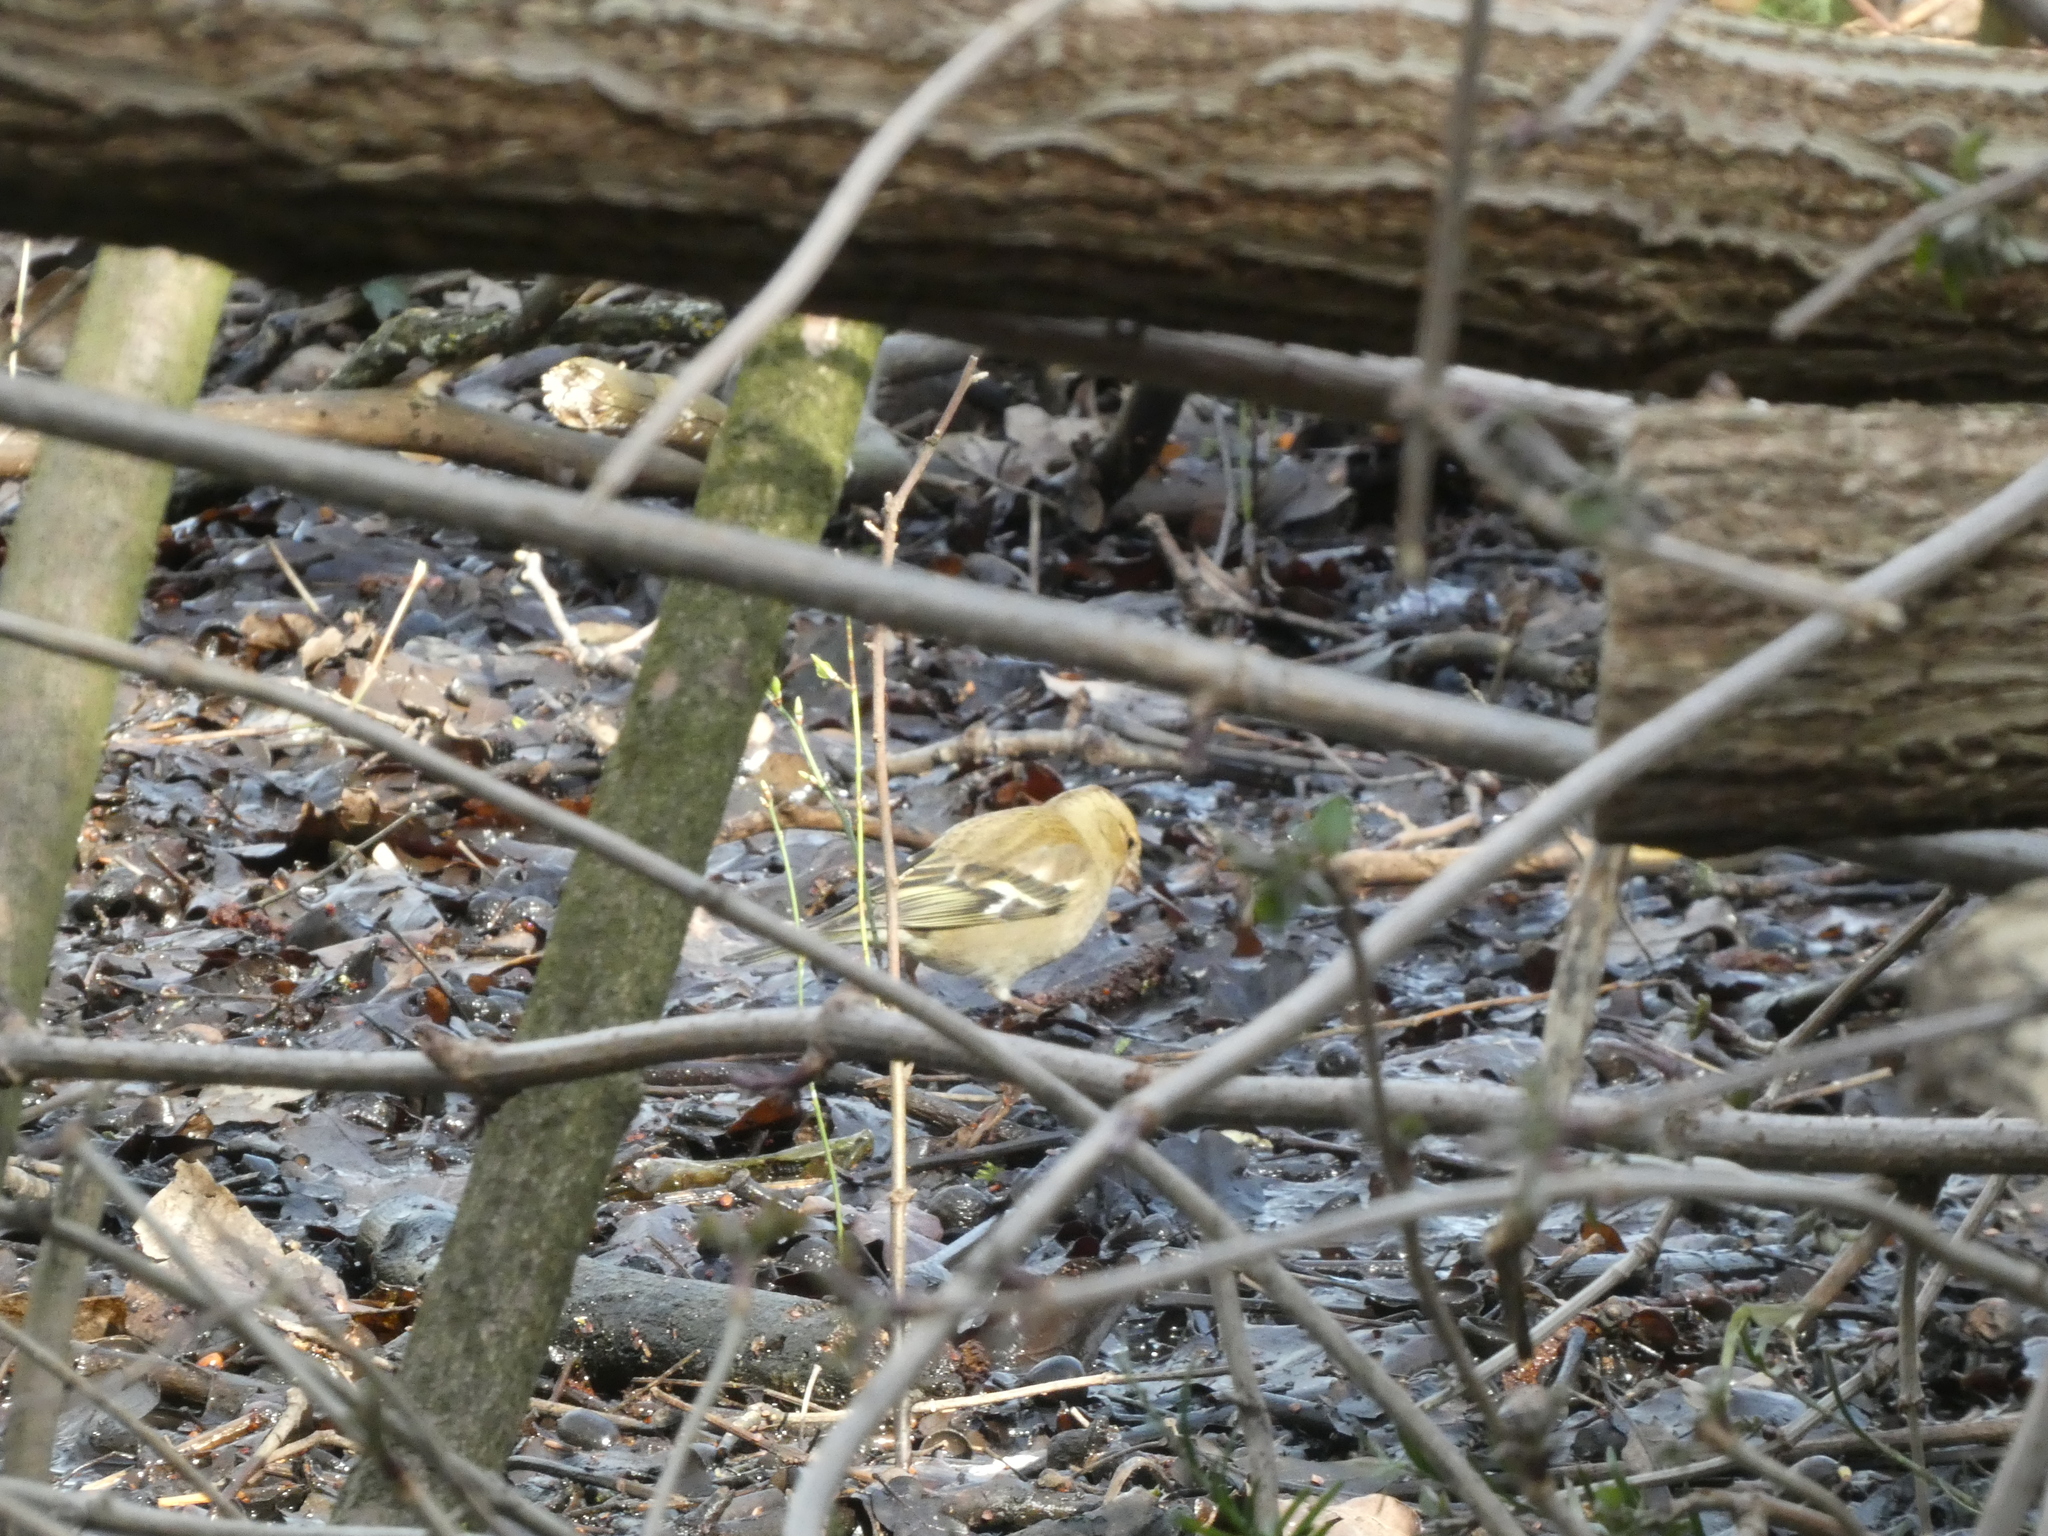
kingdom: Animalia
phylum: Chordata
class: Aves
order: Passeriformes
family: Fringillidae
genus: Fringilla
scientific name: Fringilla coelebs
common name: Common chaffinch
